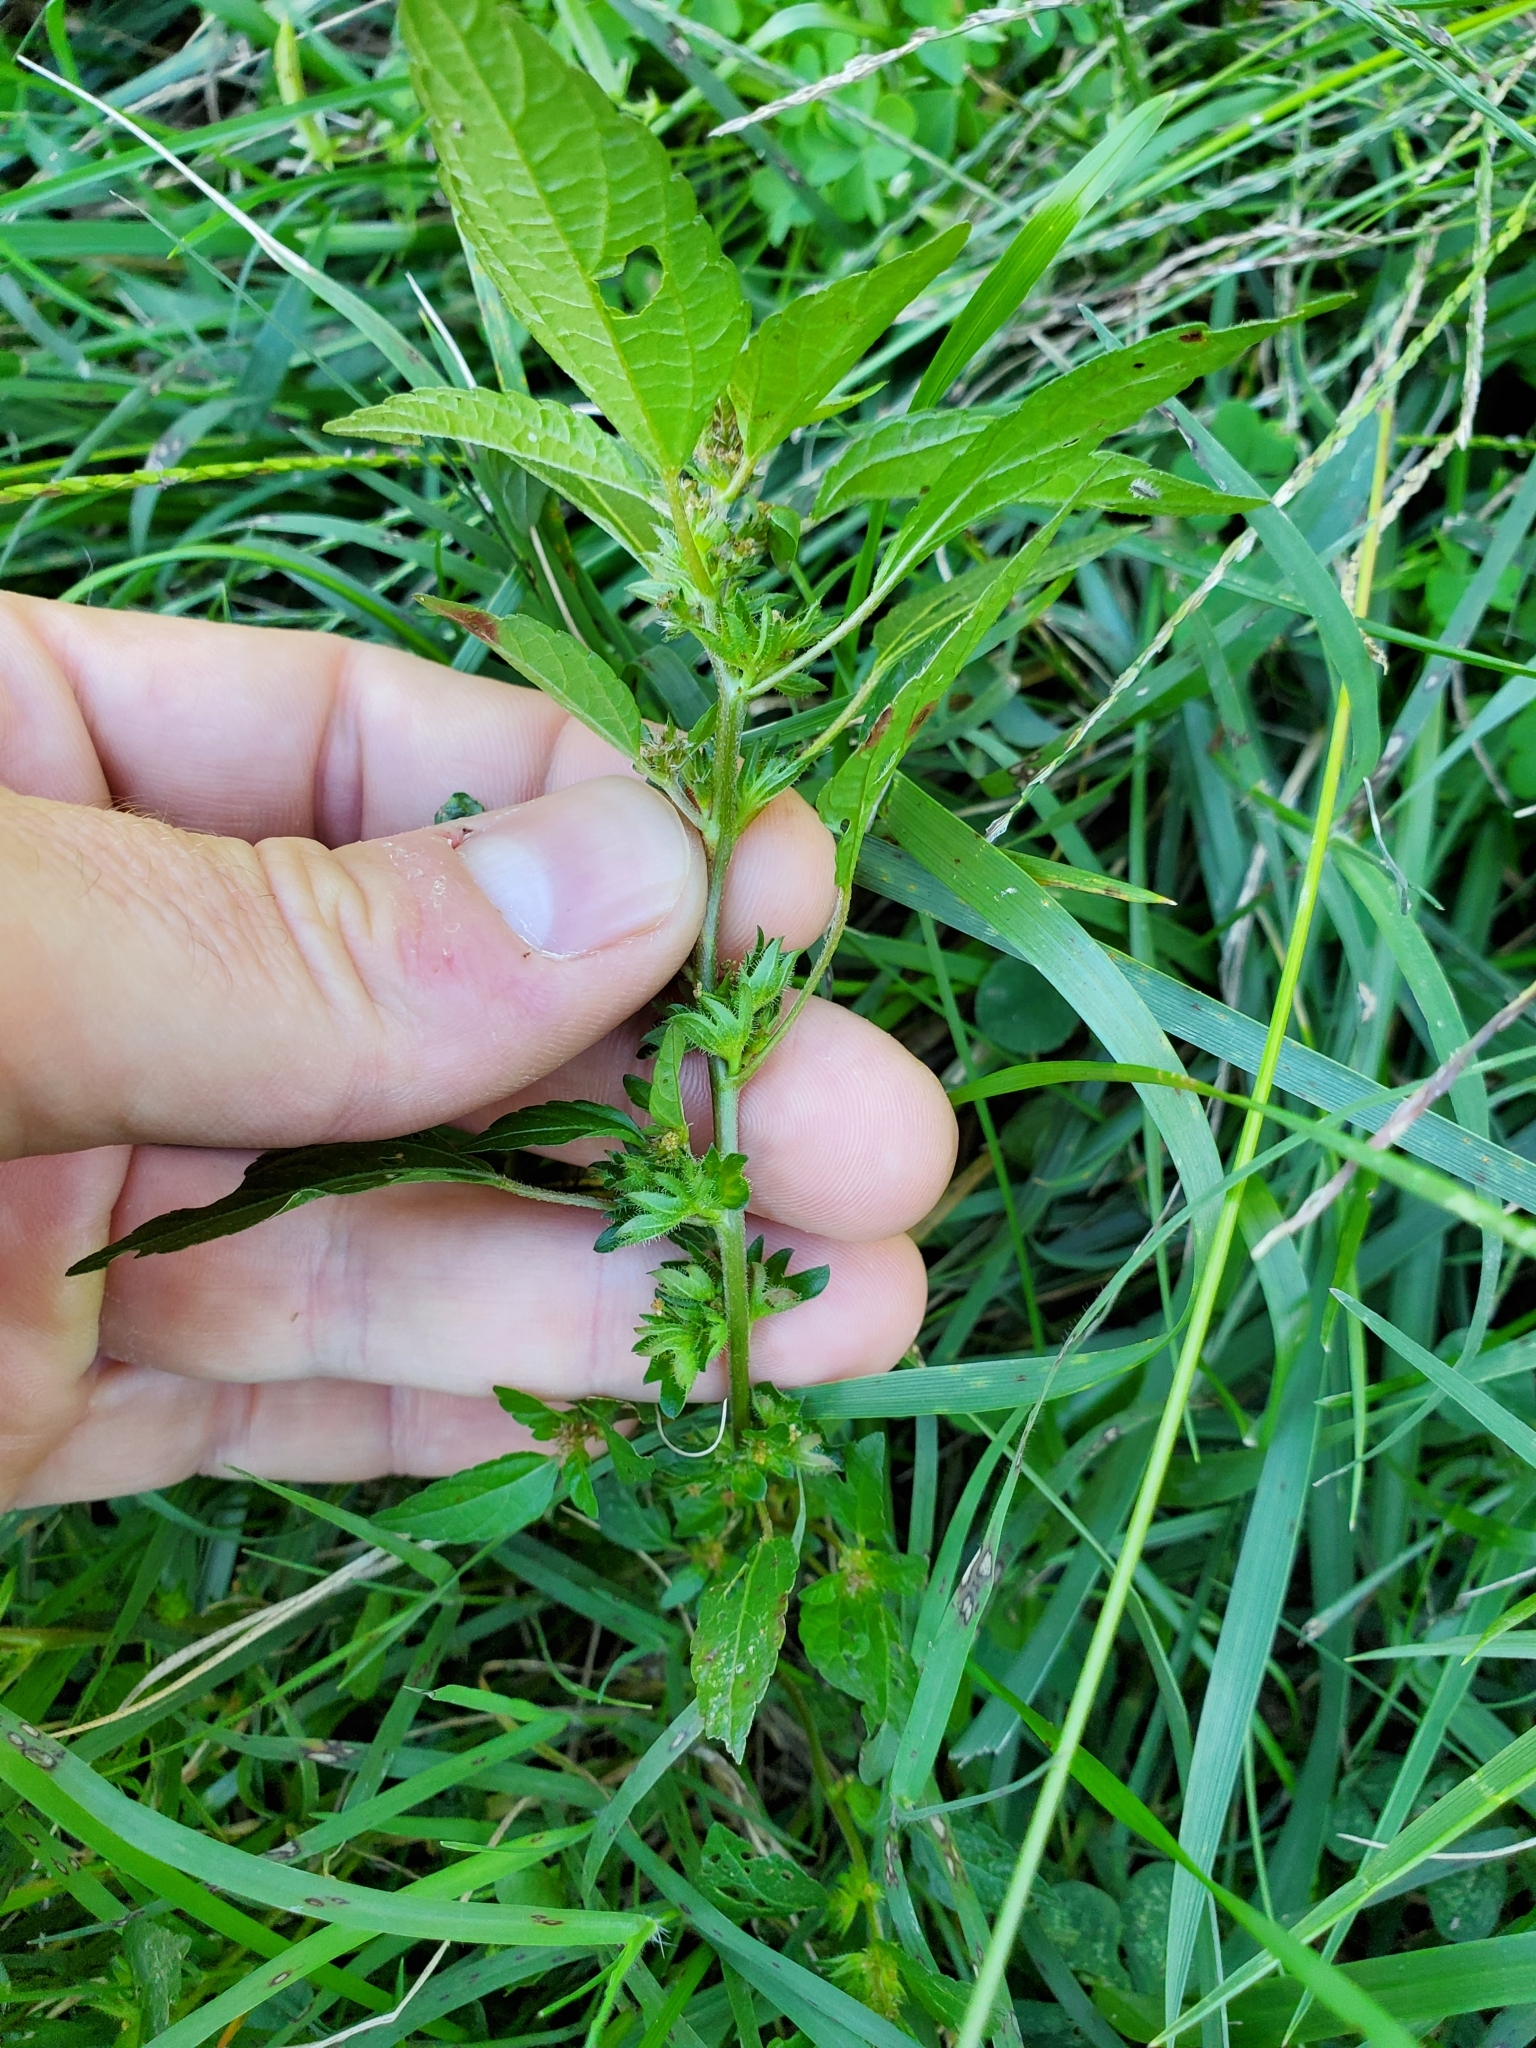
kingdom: Plantae
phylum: Tracheophyta
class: Magnoliopsida
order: Malpighiales
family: Euphorbiaceae
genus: Acalypha
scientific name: Acalypha rhomboidea
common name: Rhombic copperleaf
